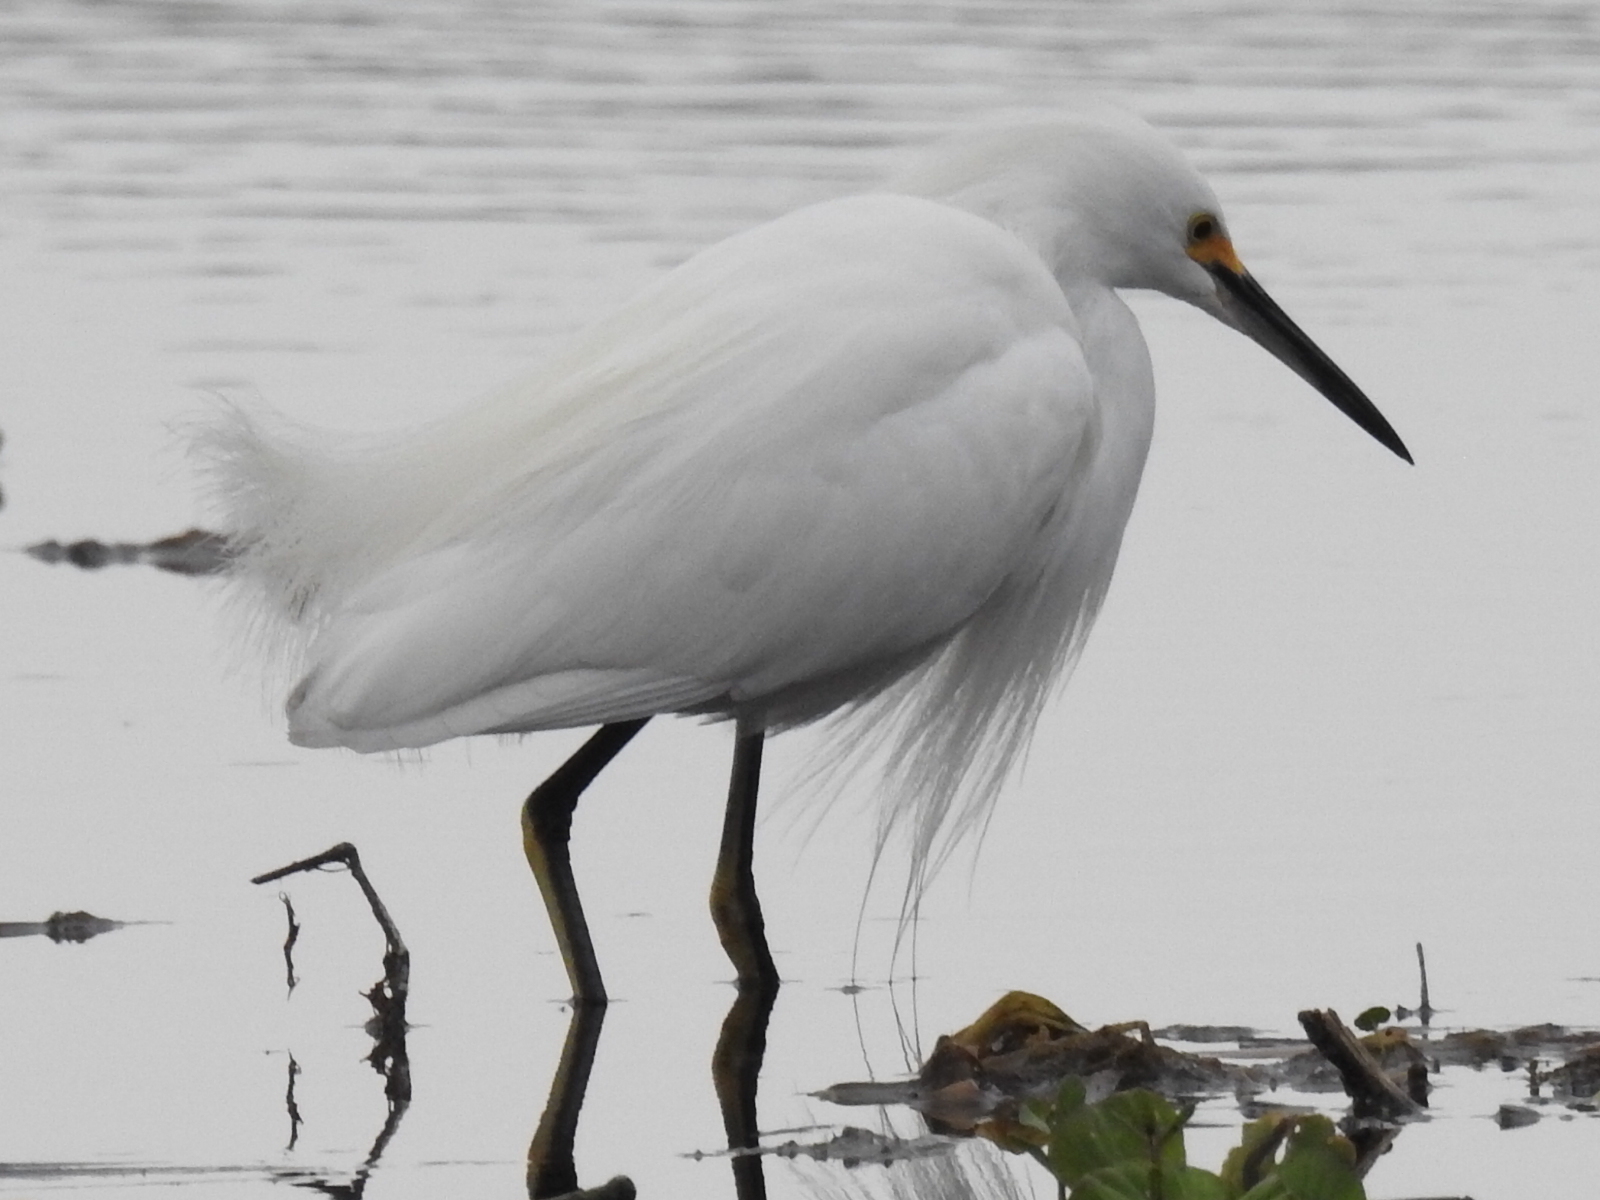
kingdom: Animalia
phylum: Chordata
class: Aves
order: Pelecaniformes
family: Ardeidae
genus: Egretta
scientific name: Egretta thula
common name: Snowy egret
